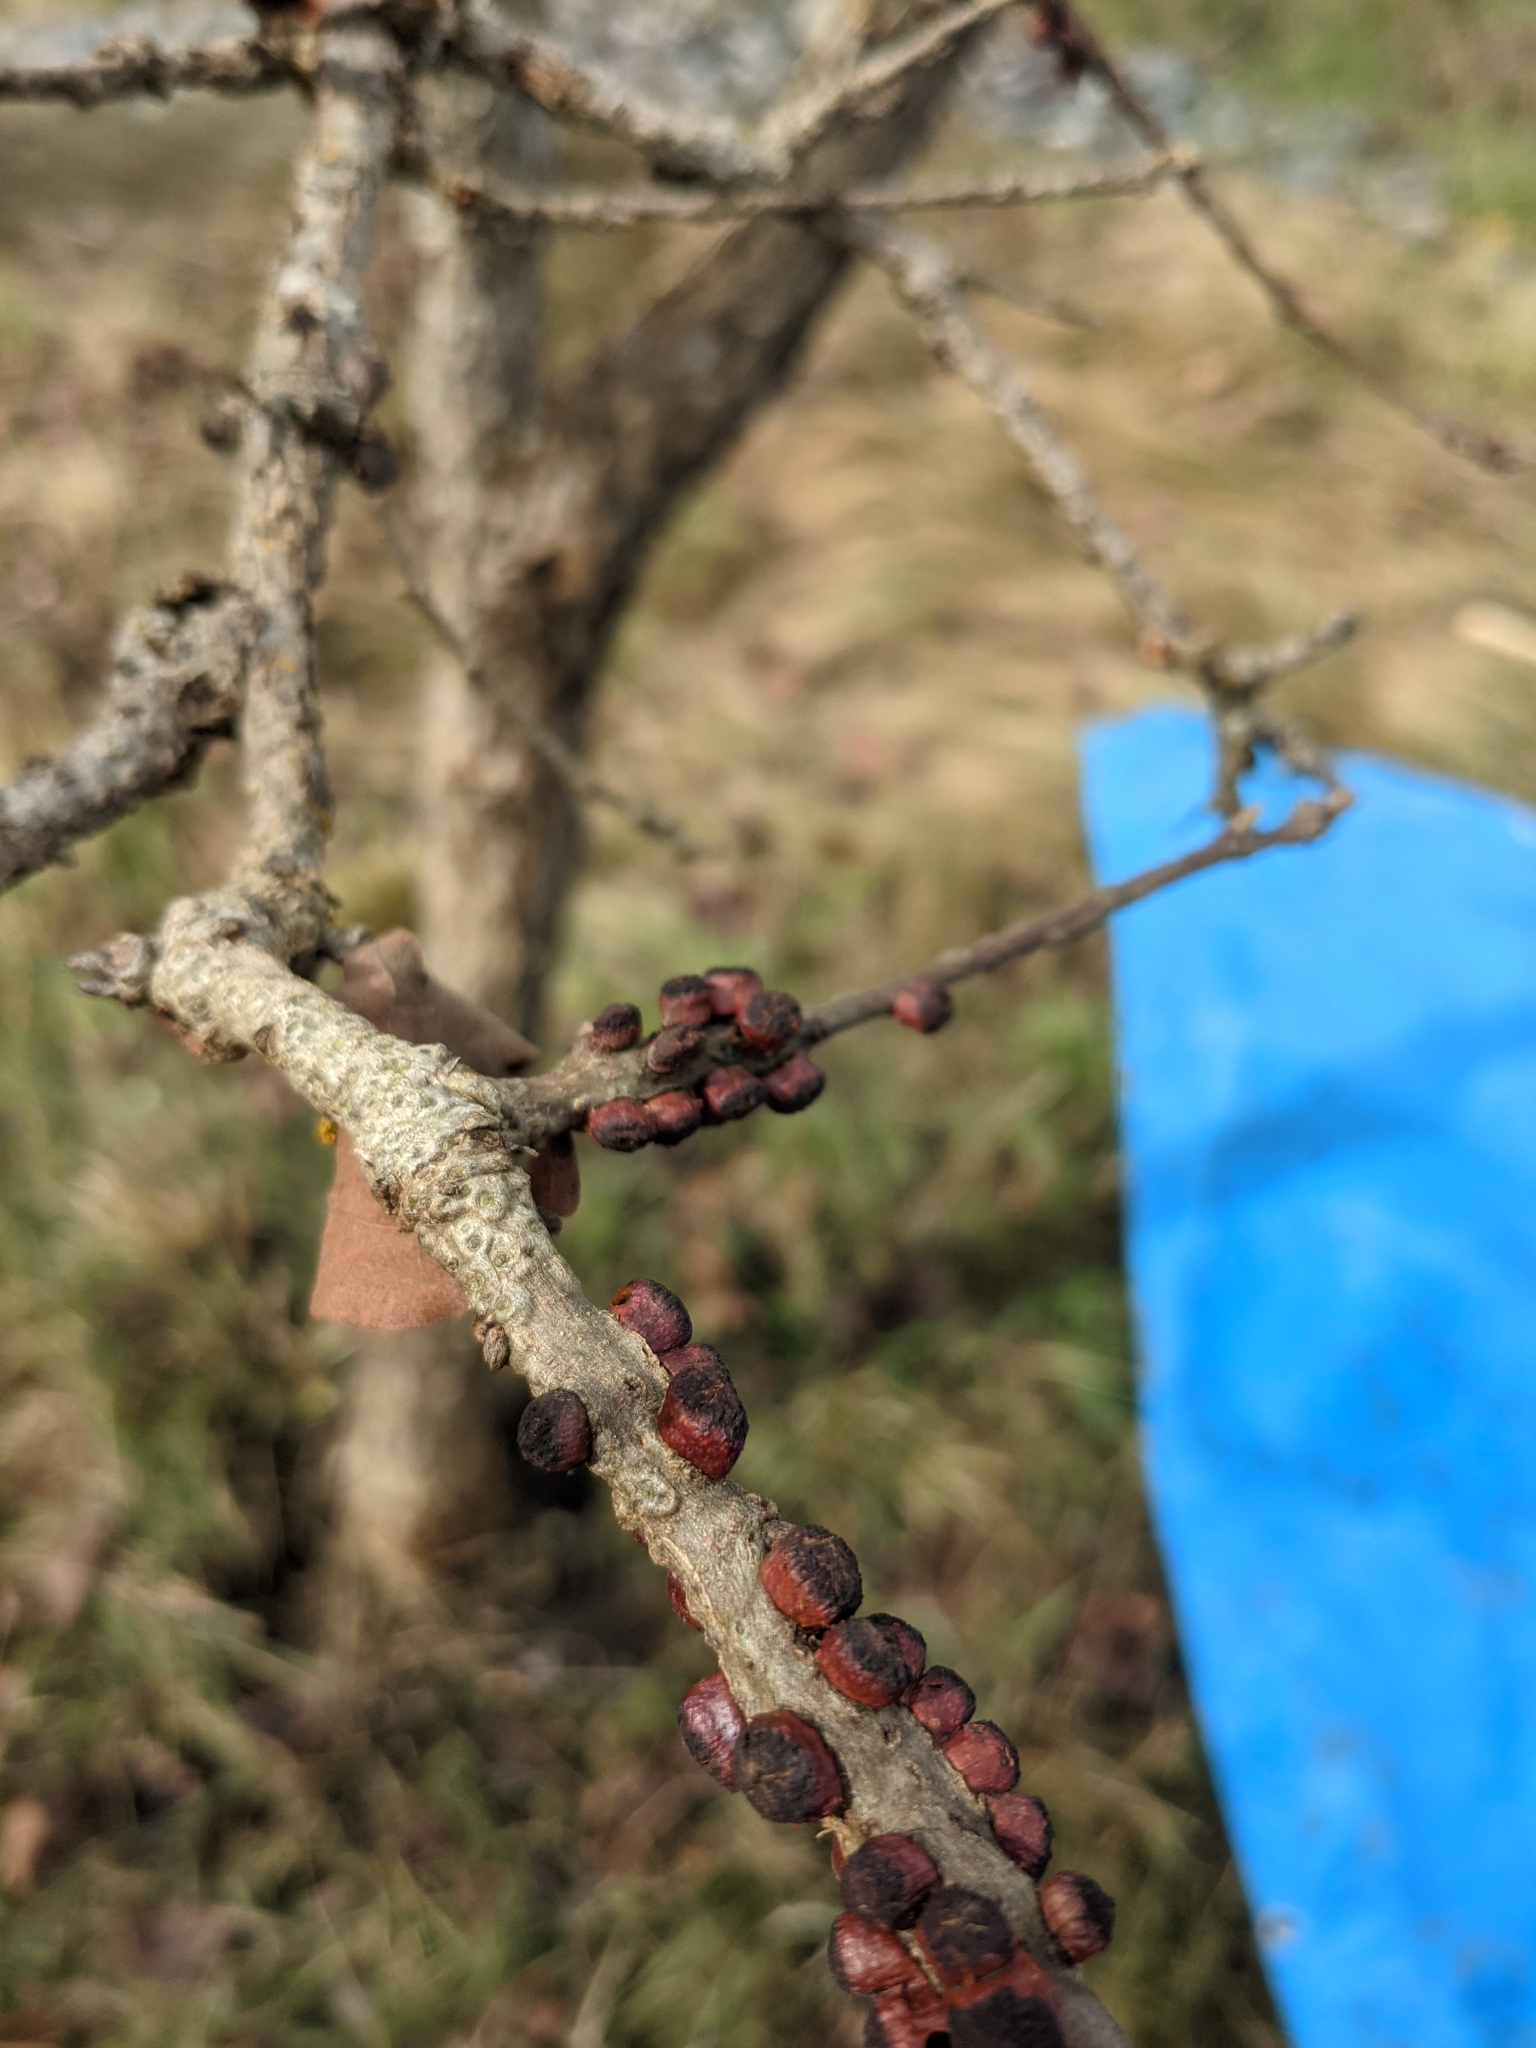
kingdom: Animalia
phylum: Arthropoda
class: Insecta
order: Hymenoptera
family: Cynipidae
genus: Disholcaspis
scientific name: Disholcaspis
